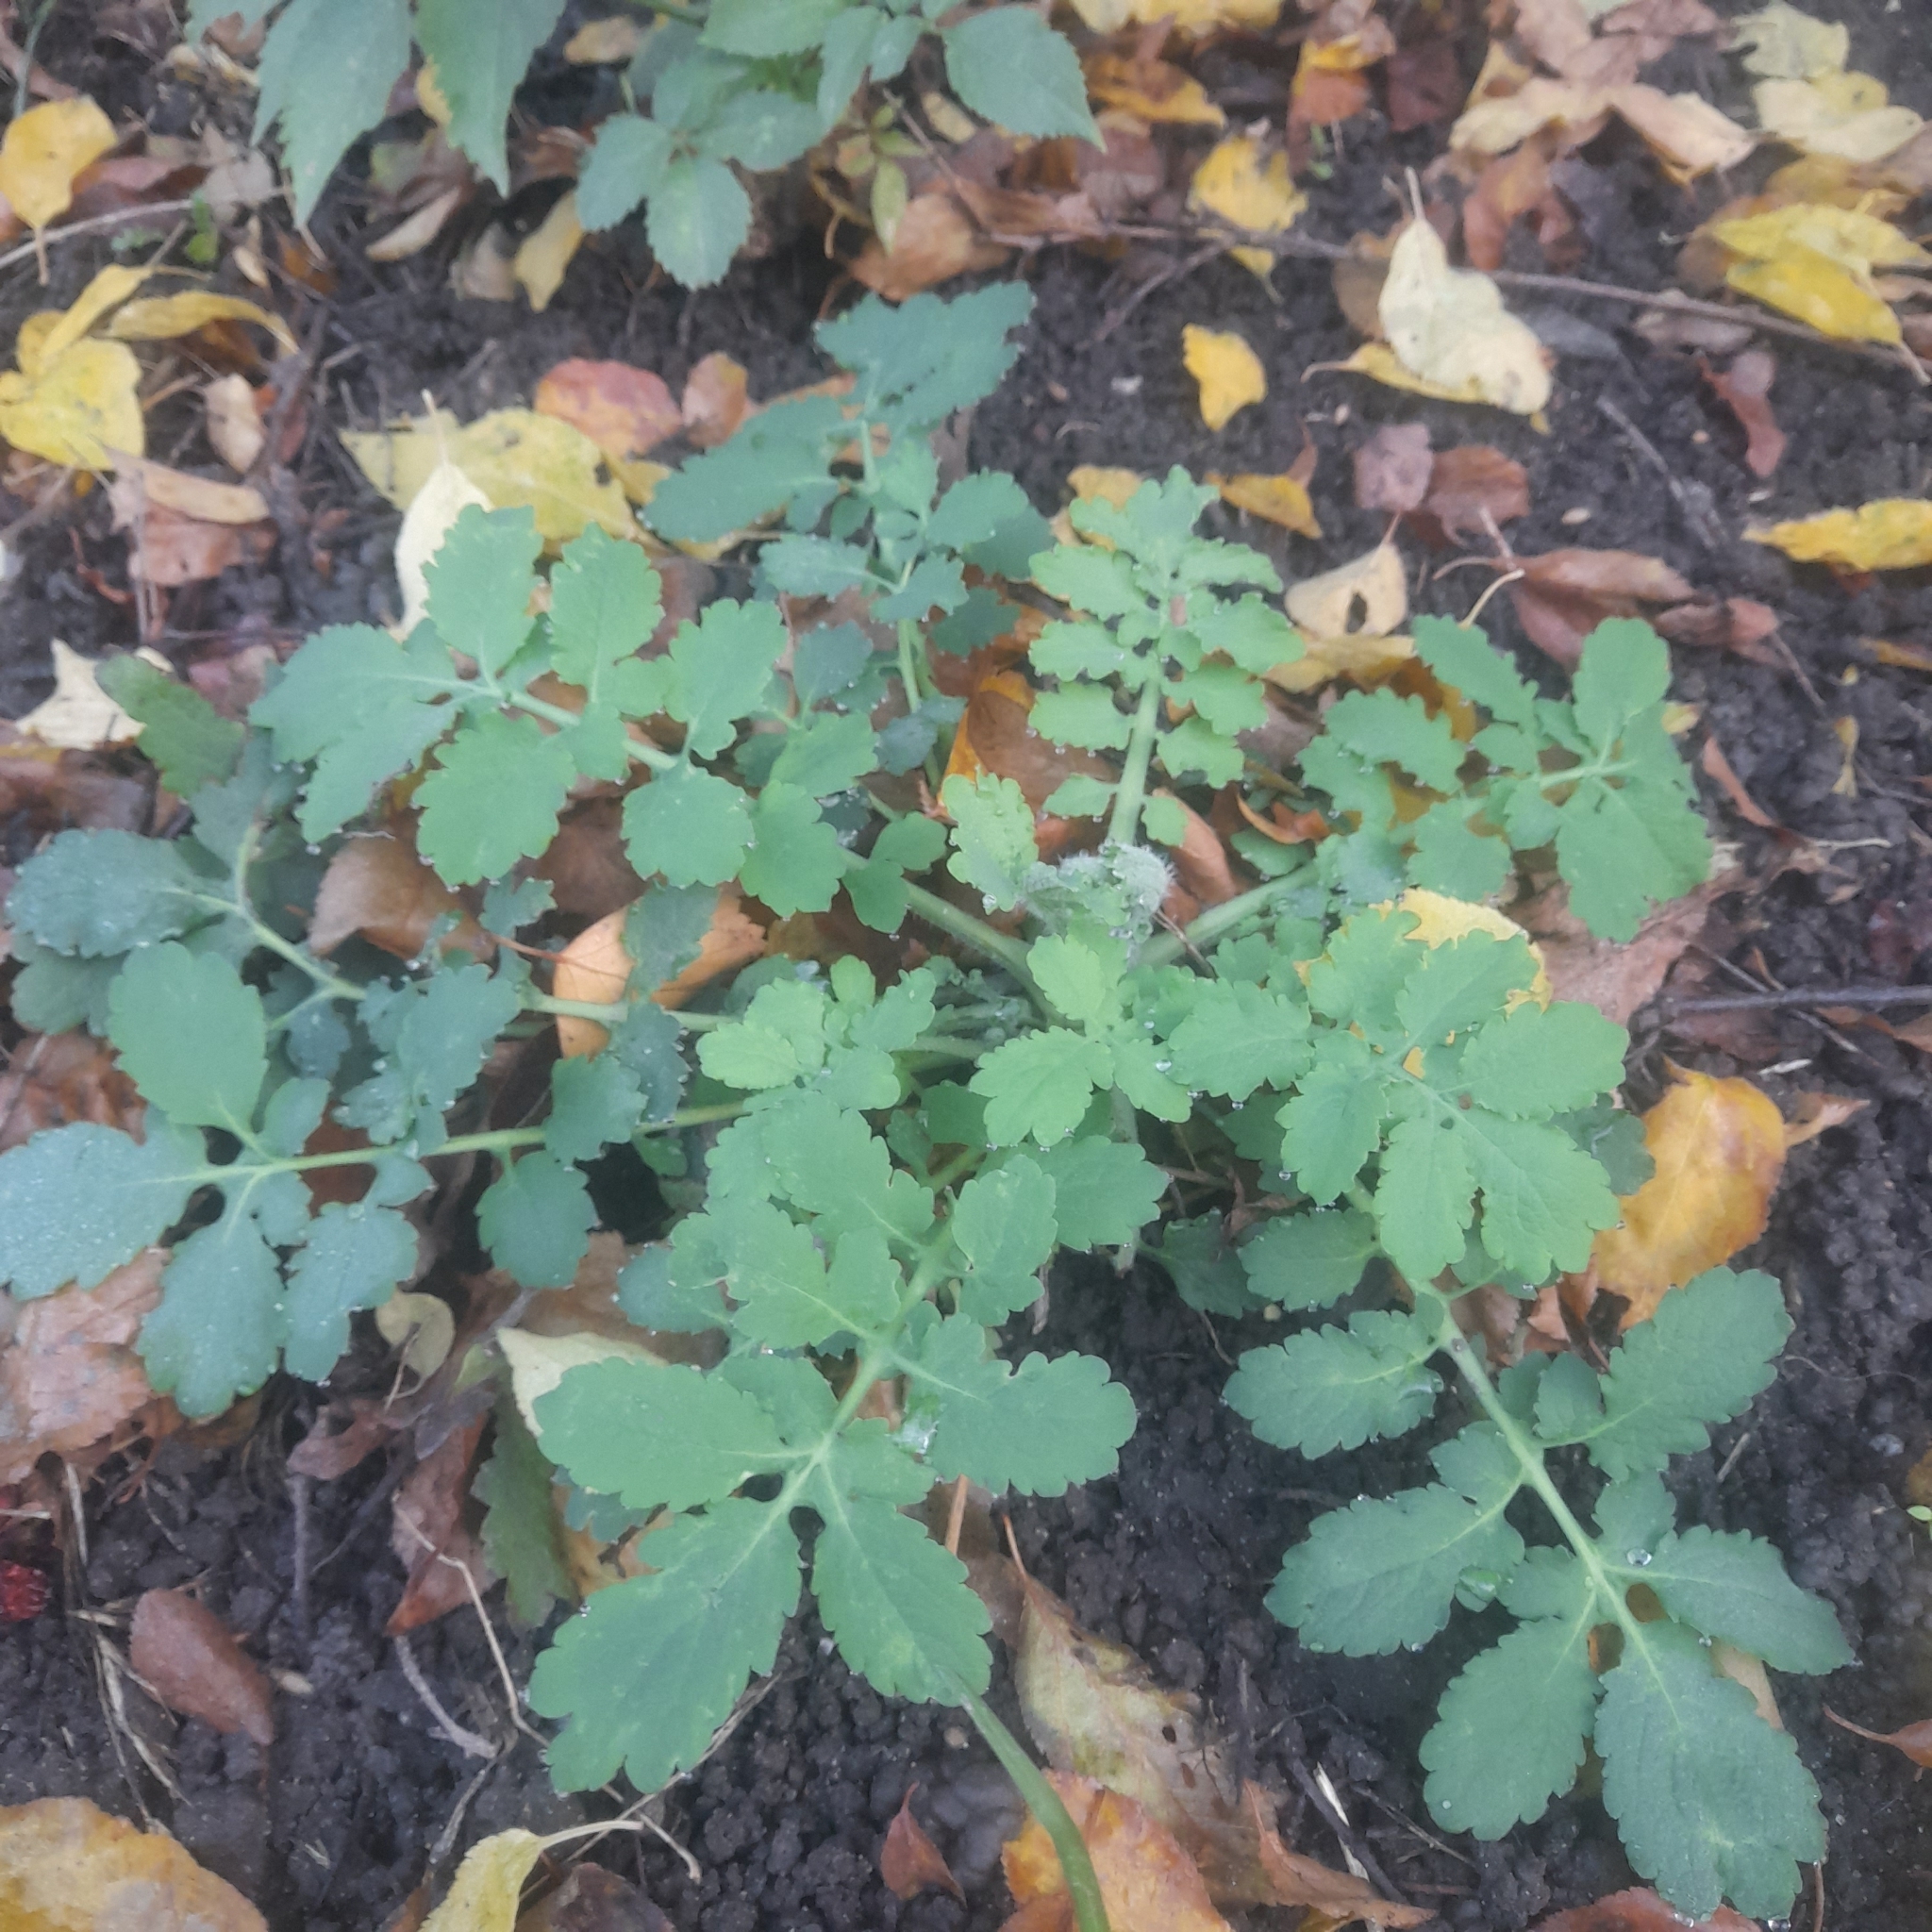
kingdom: Plantae
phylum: Tracheophyta
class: Magnoliopsida
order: Ranunculales
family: Papaveraceae
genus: Chelidonium
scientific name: Chelidonium majus
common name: Greater celandine
